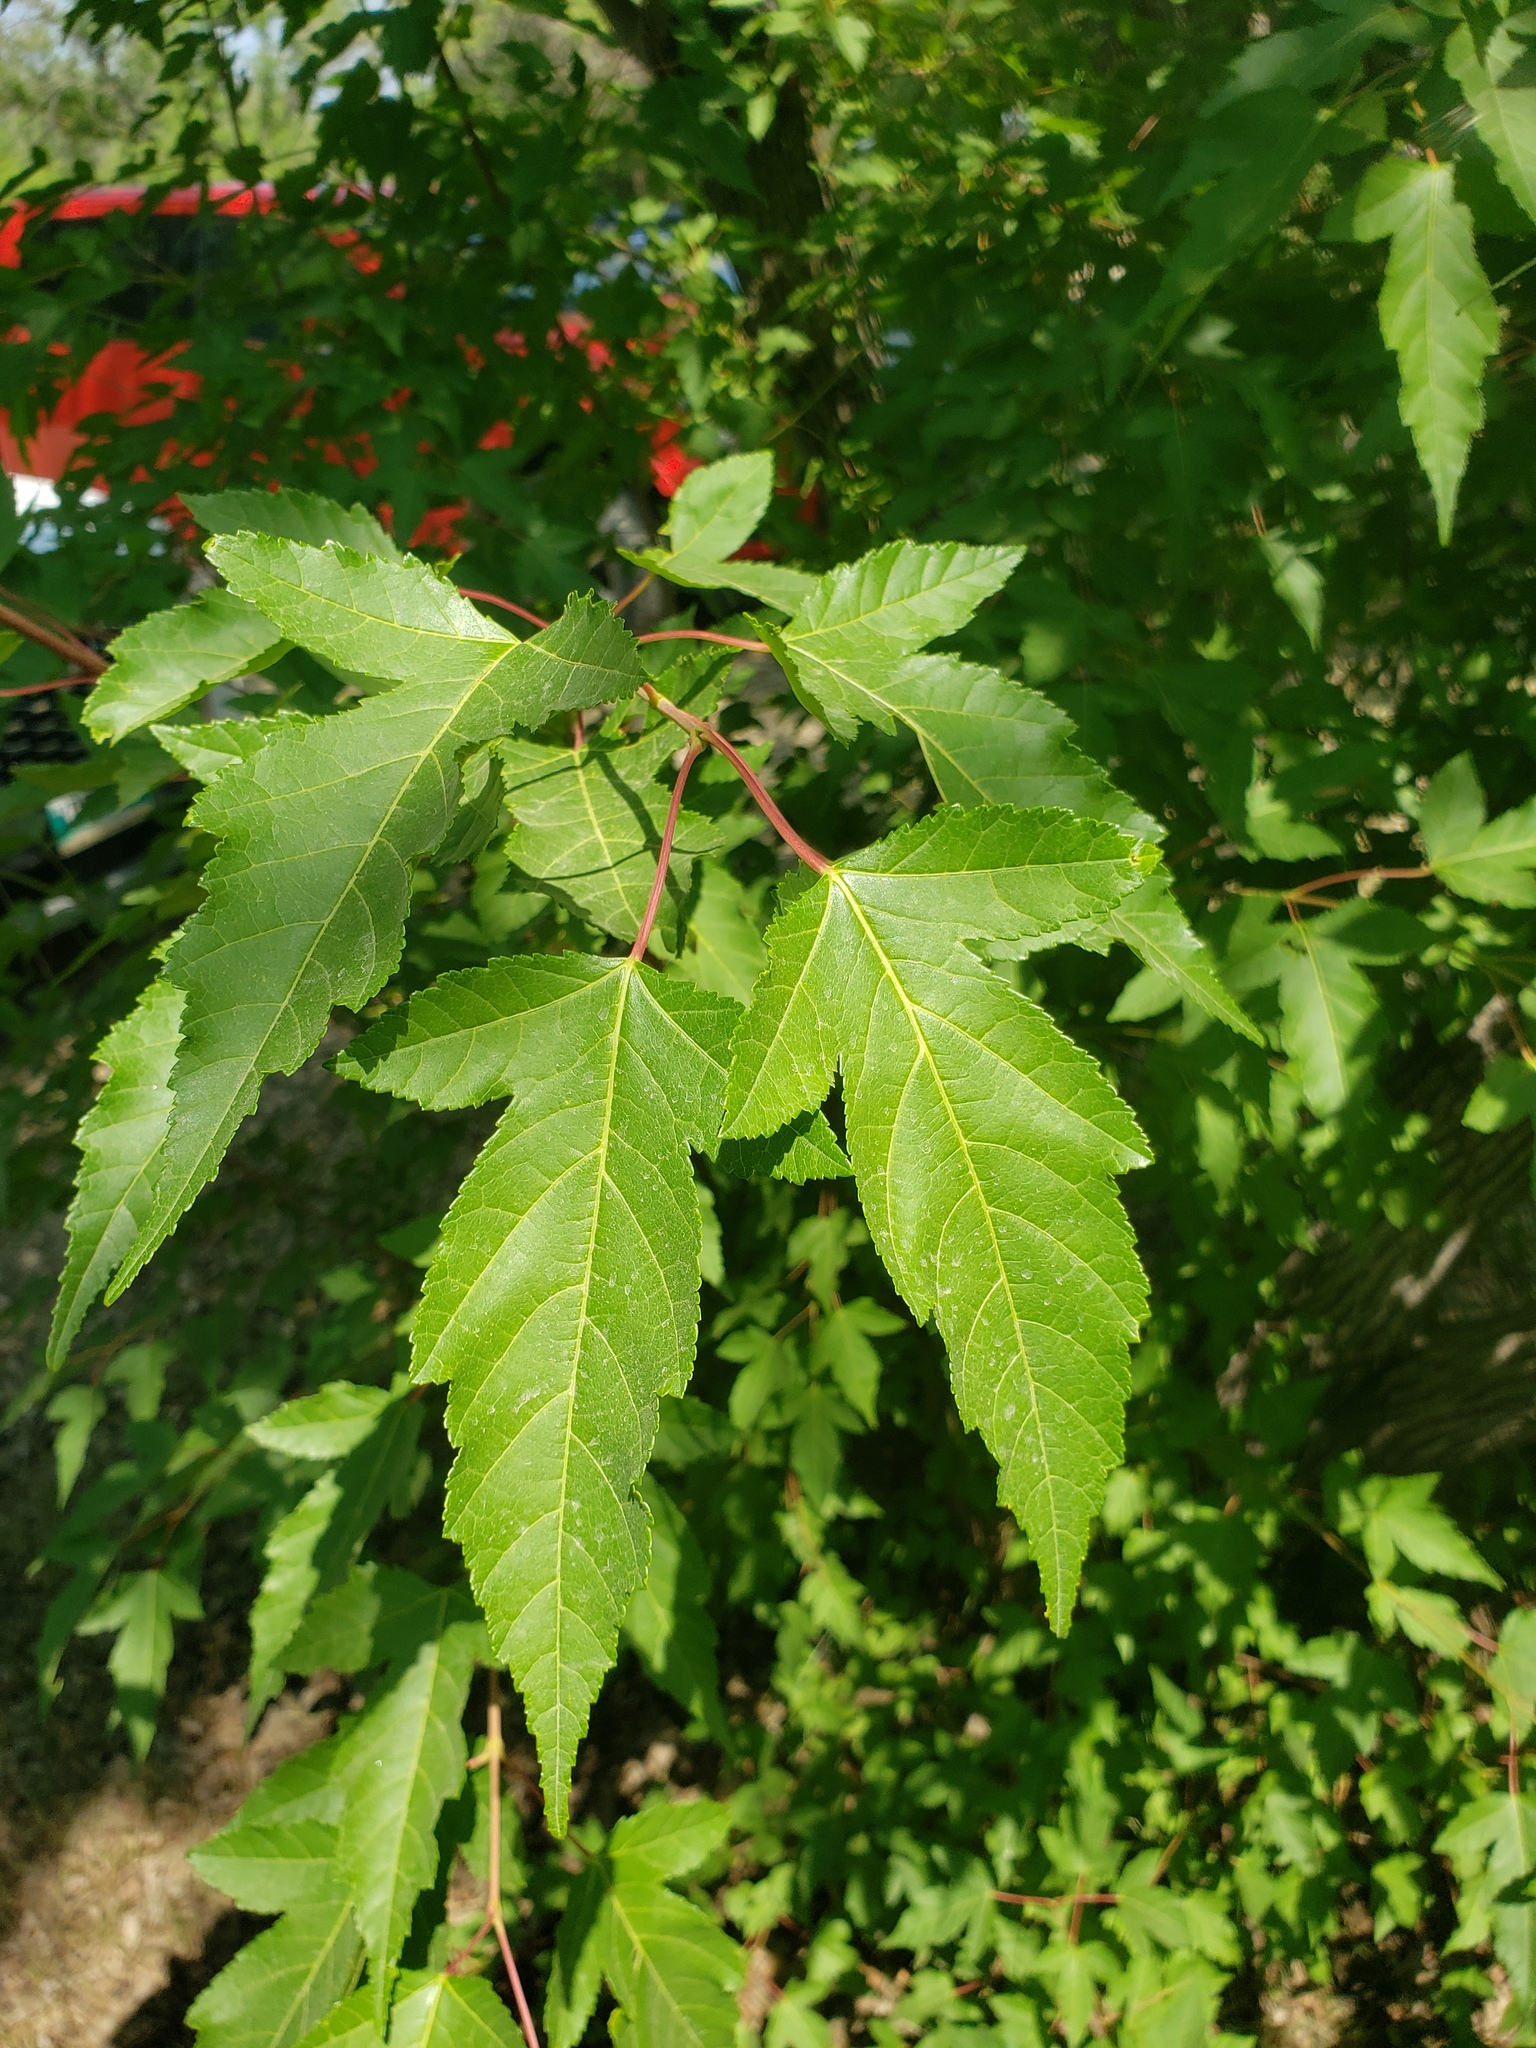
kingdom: Plantae
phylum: Tracheophyta
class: Magnoliopsida
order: Sapindales
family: Sapindaceae
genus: Acer
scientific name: Acer tataricum
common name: Tartar maple
